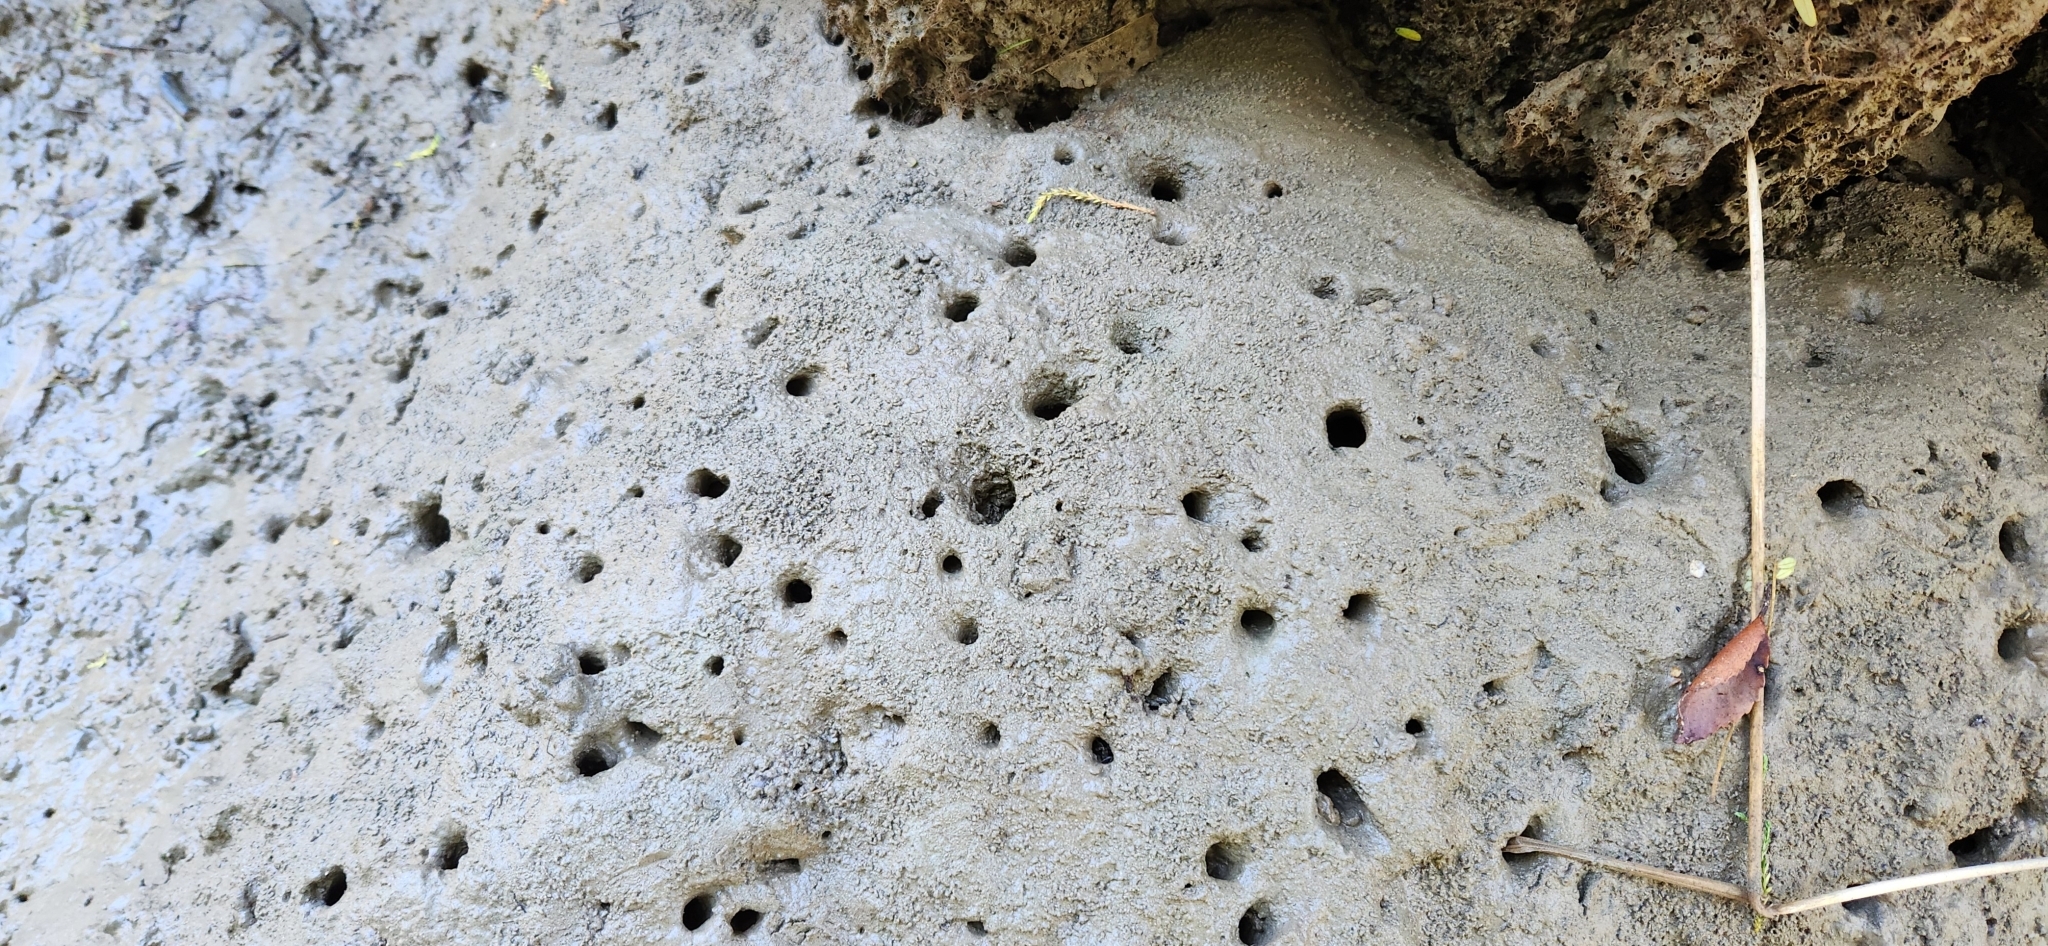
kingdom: Animalia
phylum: Arthropoda
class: Malacostraca
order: Decapoda
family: Varunidae
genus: Austrohelice
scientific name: Austrohelice crassa
